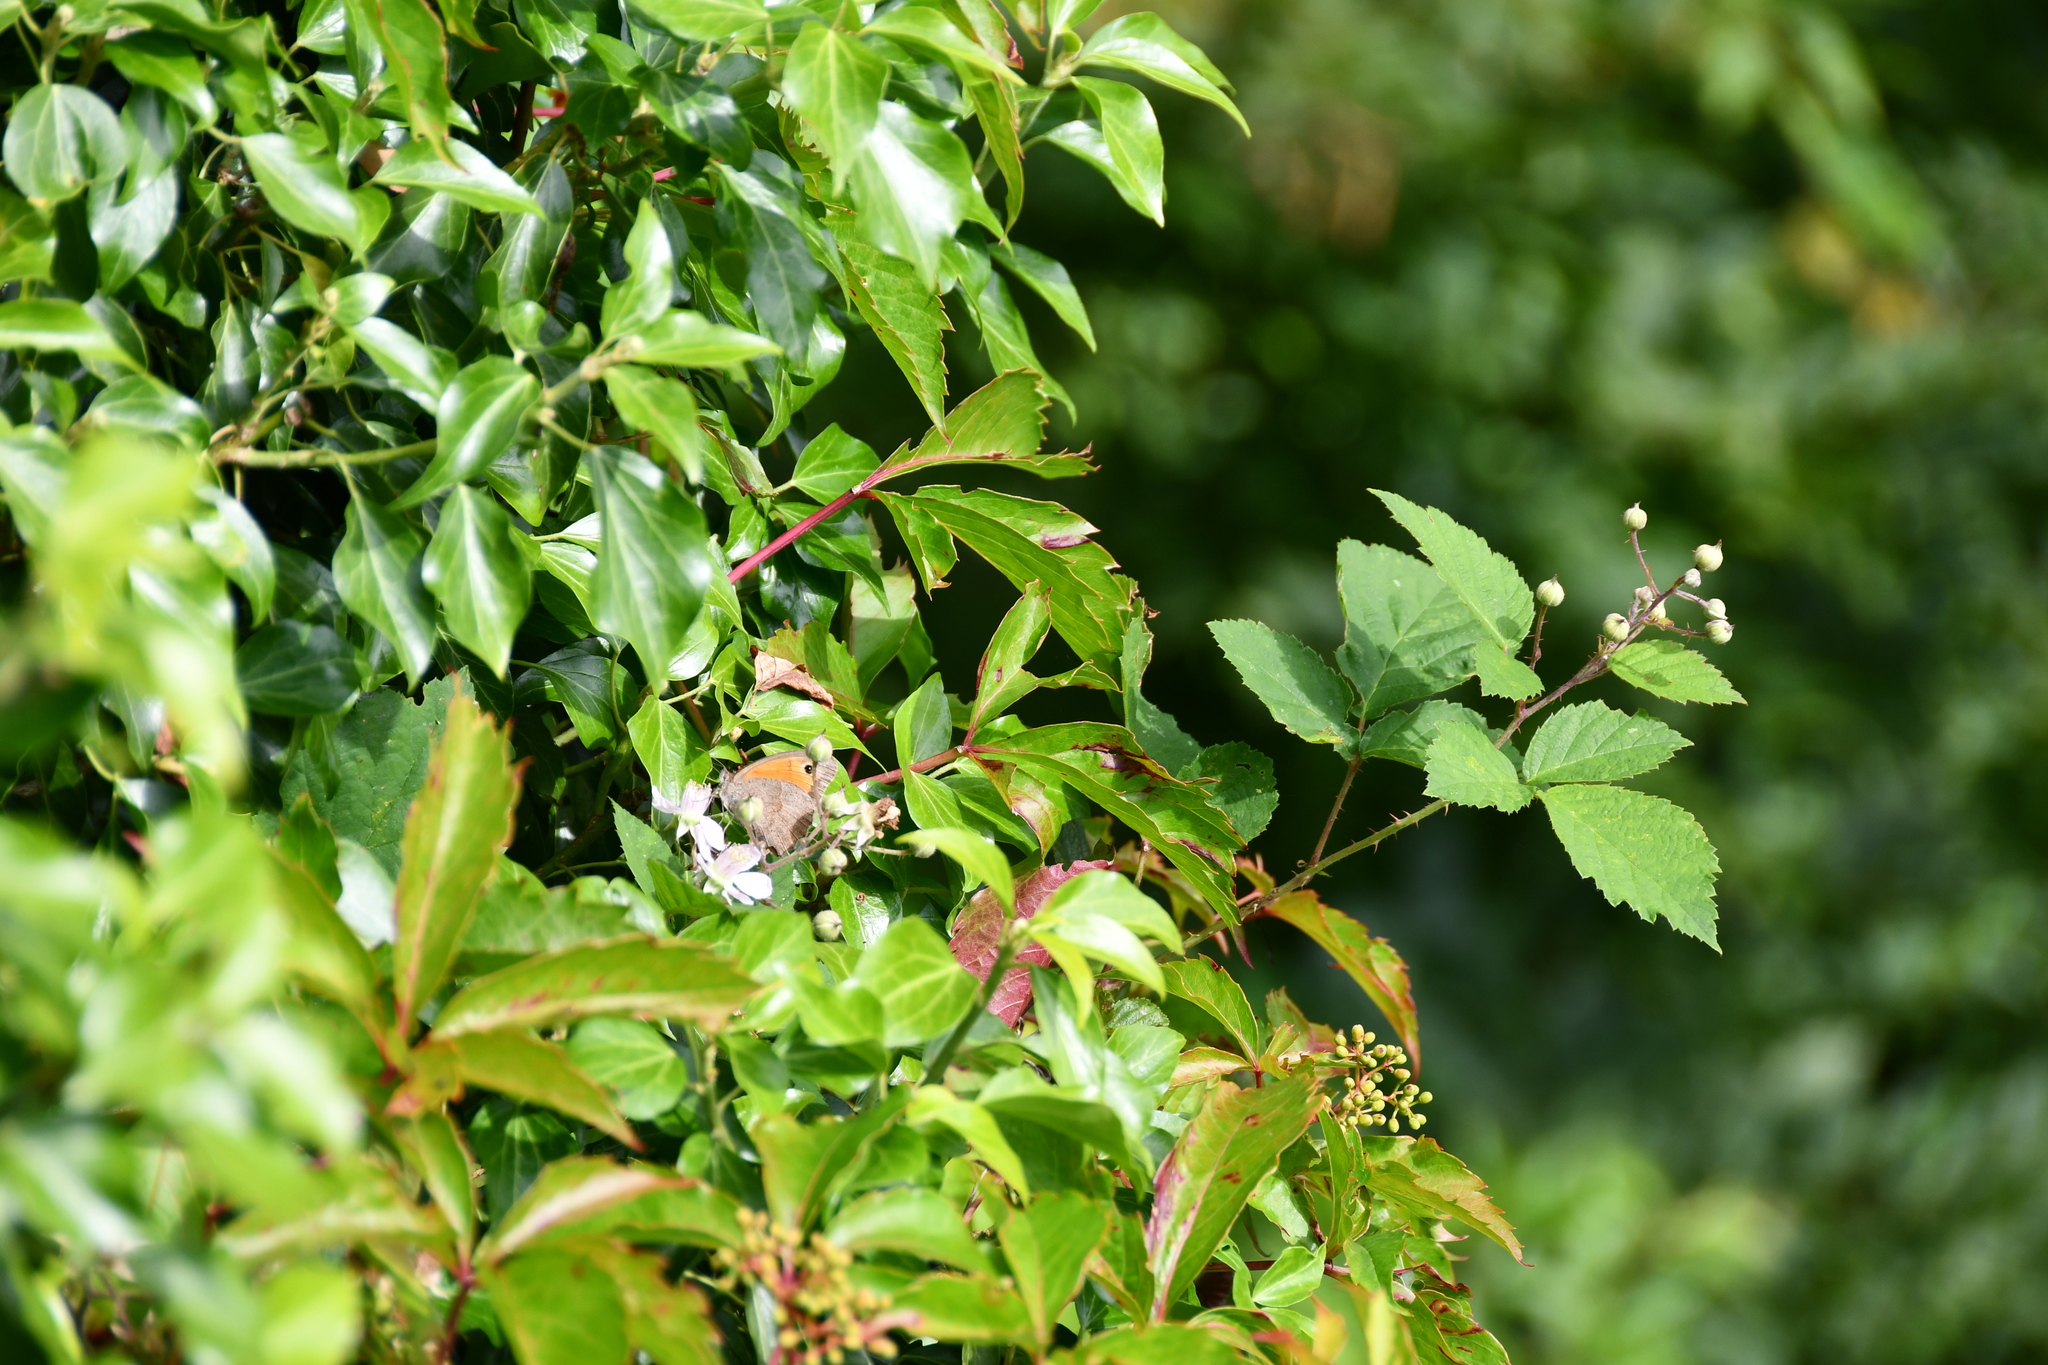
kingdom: Animalia
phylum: Arthropoda
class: Insecta
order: Lepidoptera
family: Nymphalidae
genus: Maniola
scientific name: Maniola jurtina
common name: Meadow brown
